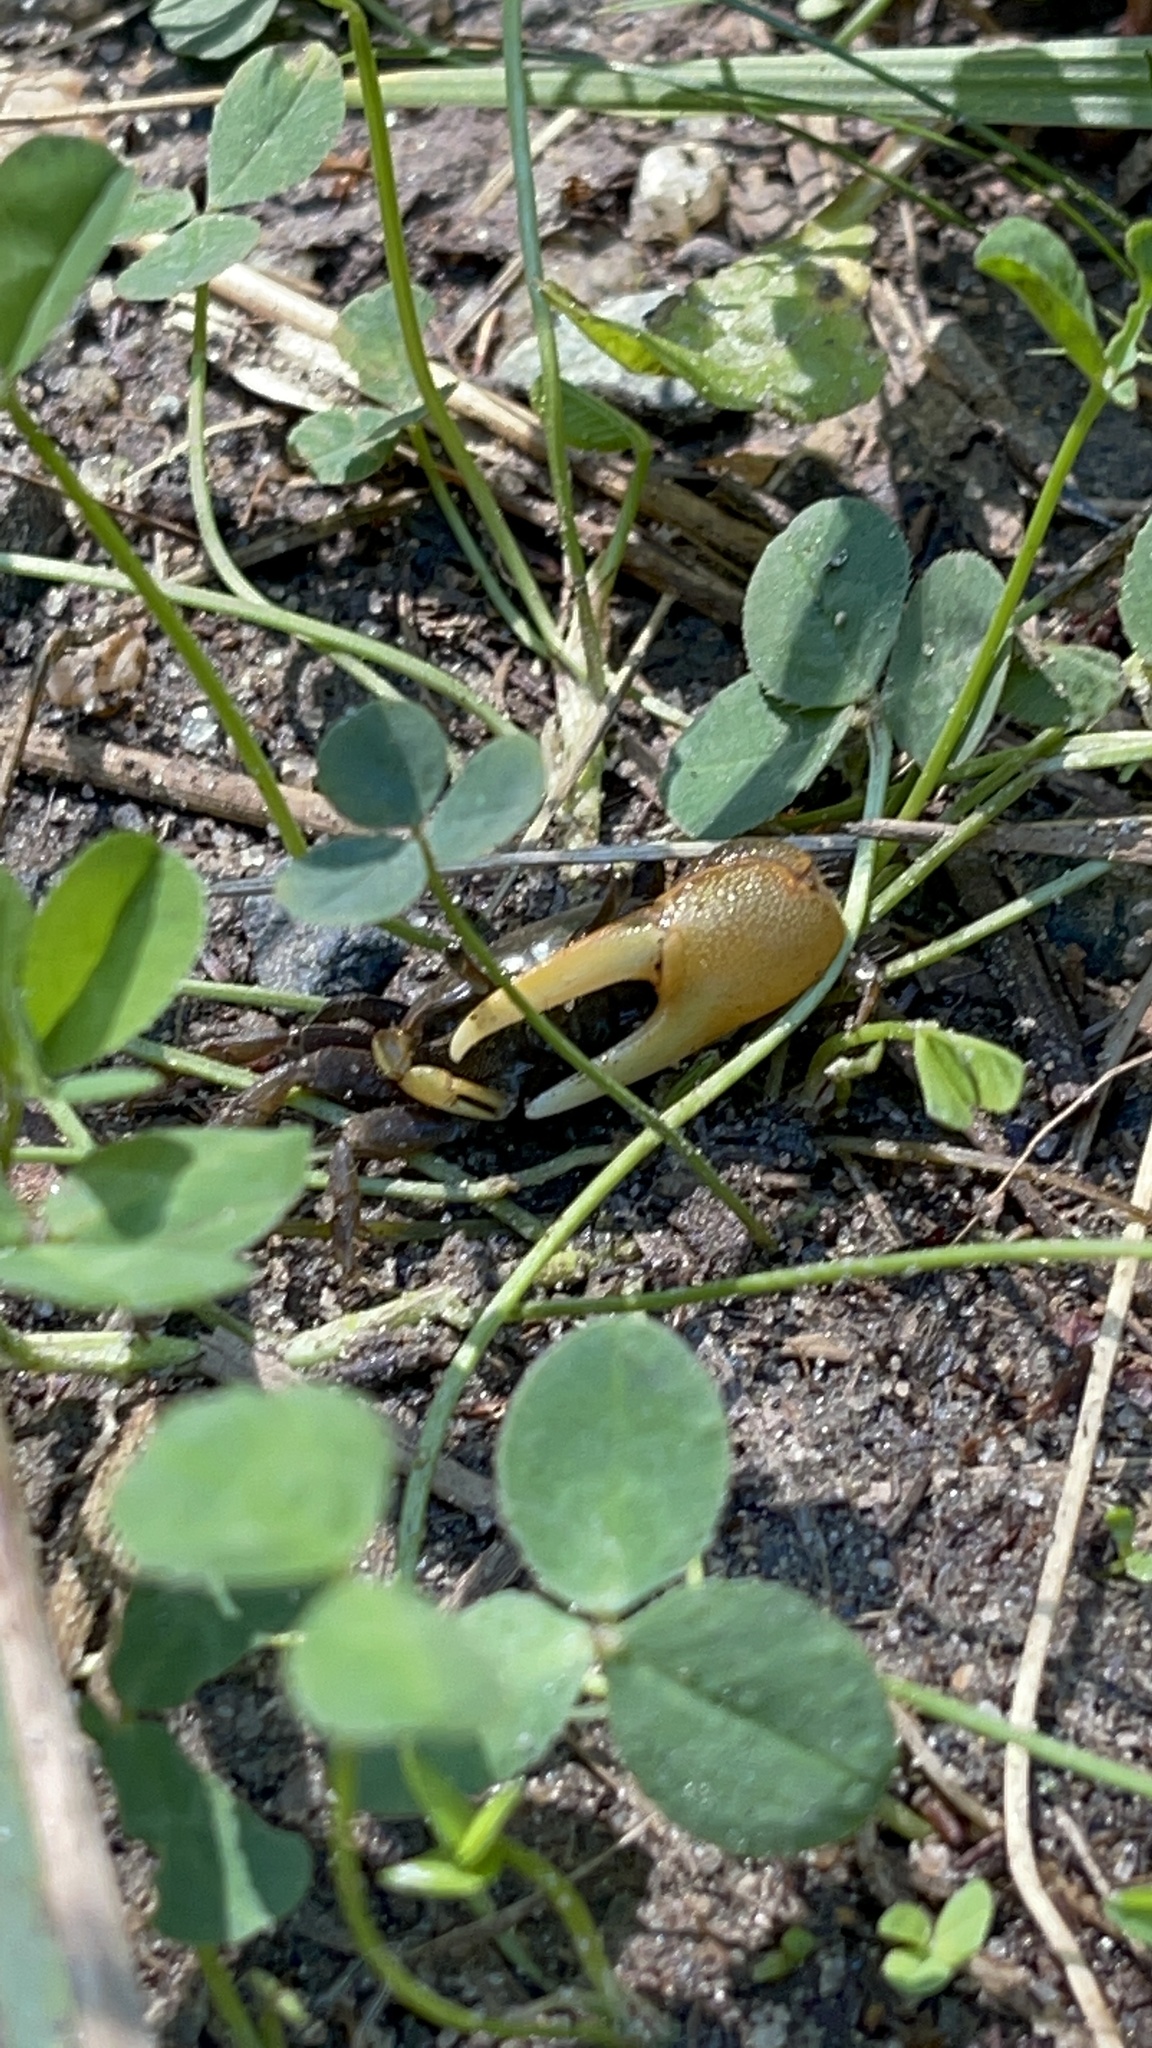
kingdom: Animalia
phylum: Arthropoda
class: Malacostraca
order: Decapoda
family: Ocypodidae
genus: Minuca
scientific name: Minuca pugnax
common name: Mud fiddler crab
